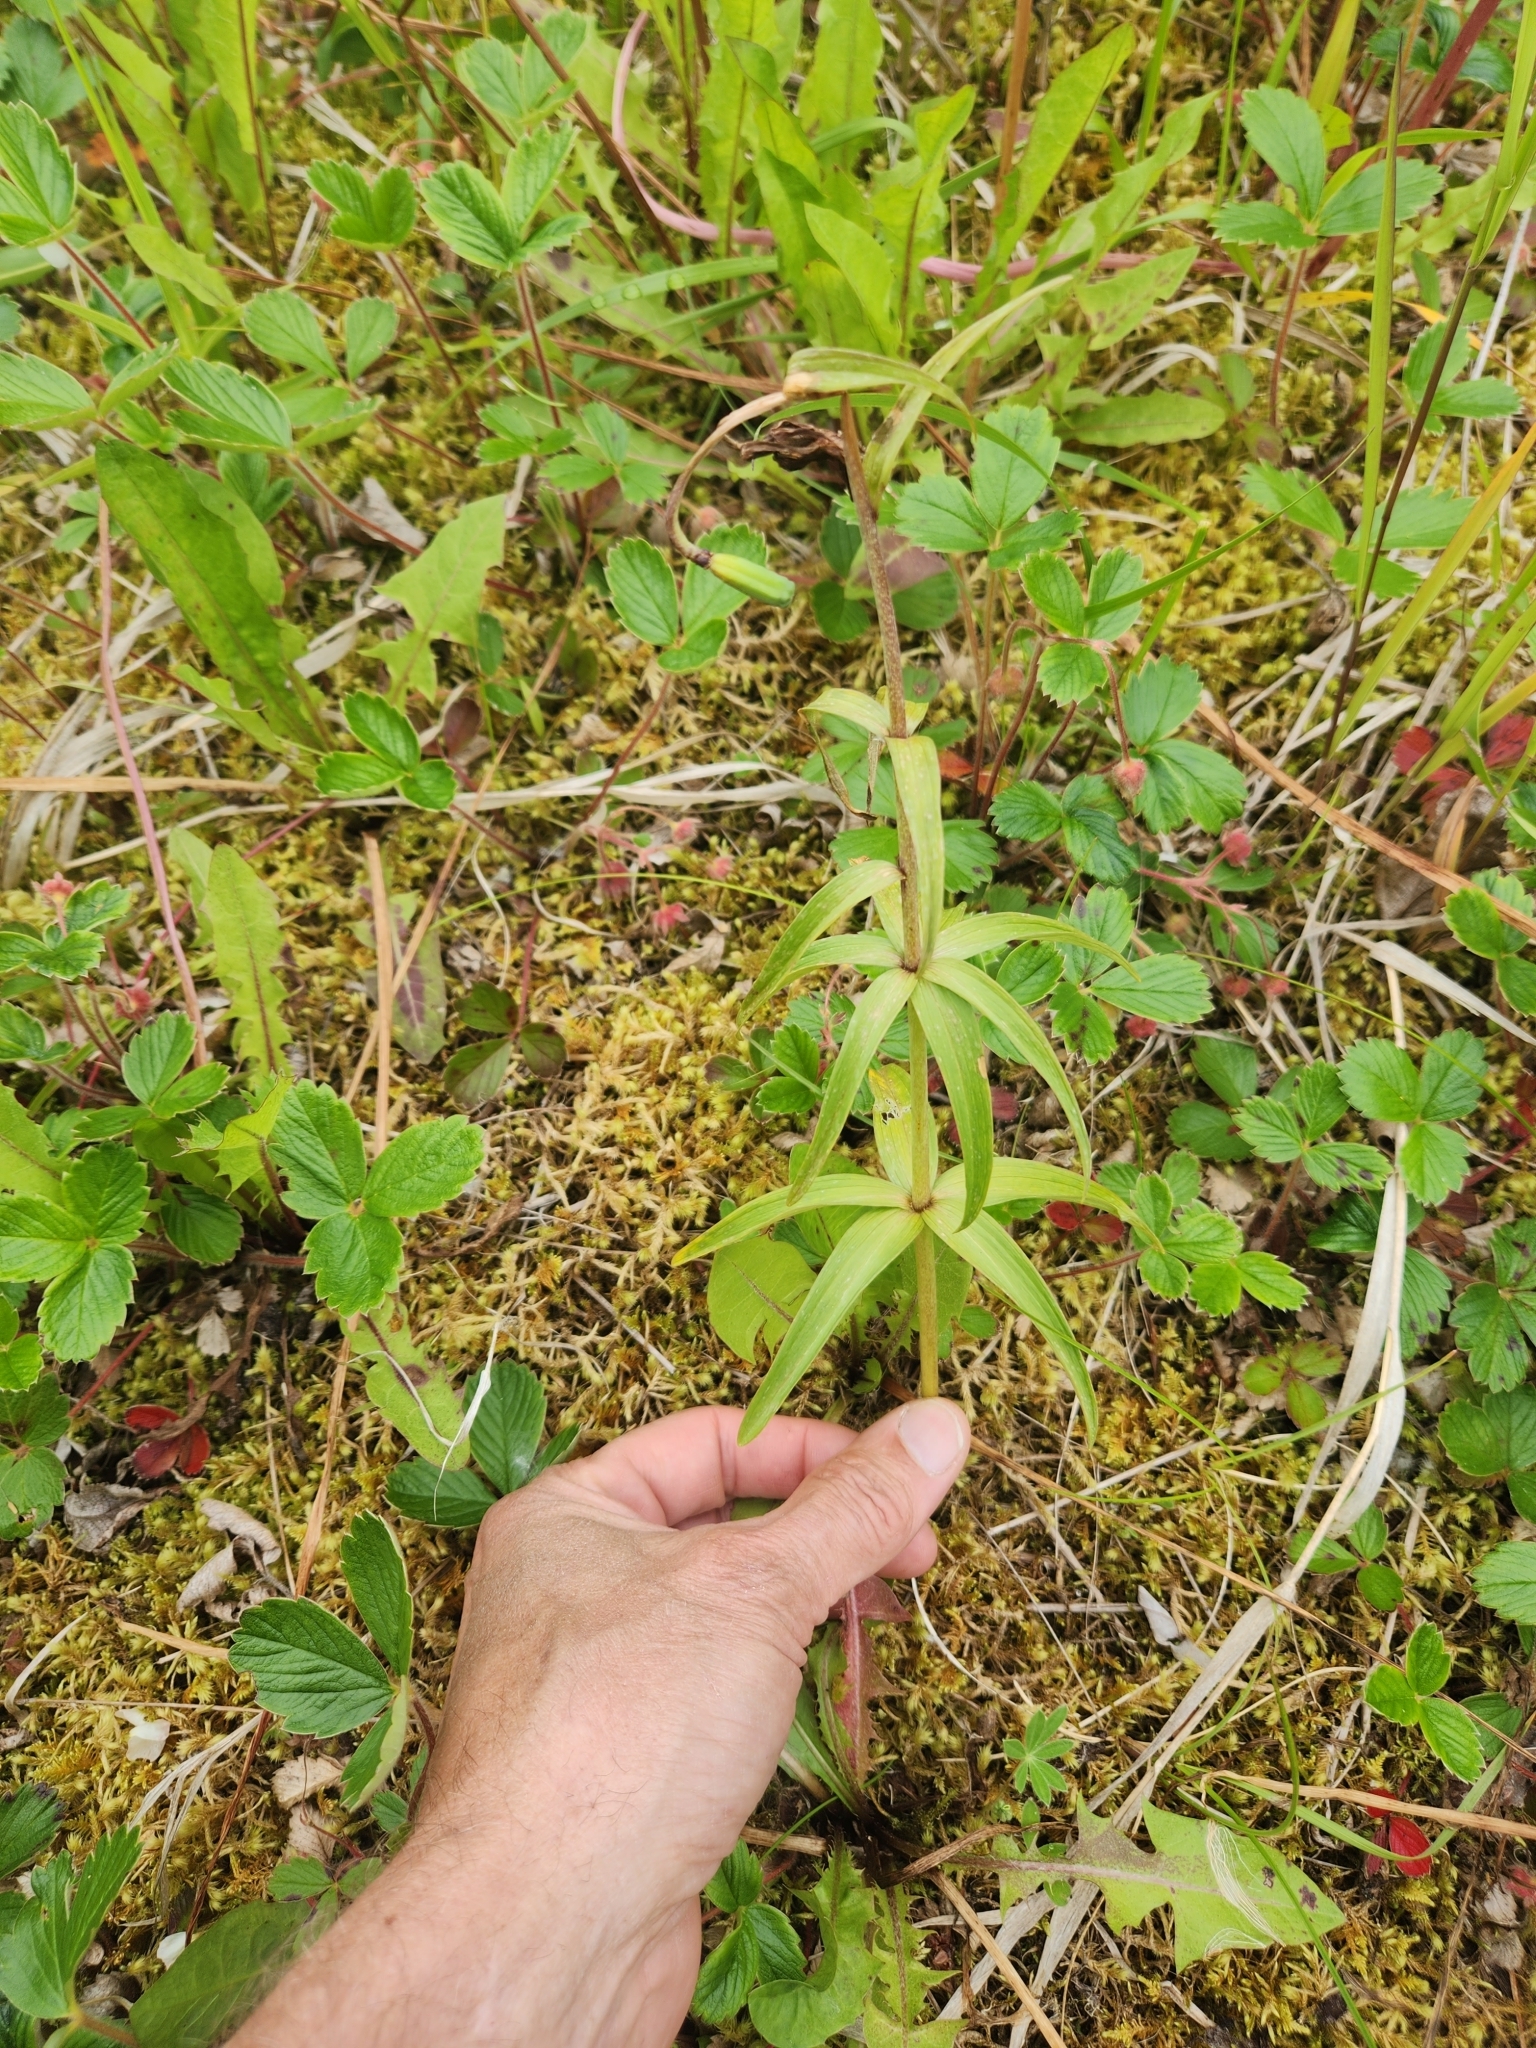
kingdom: Plantae
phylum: Tracheophyta
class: Liliopsida
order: Liliales
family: Liliaceae
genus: Fritillaria
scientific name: Fritillaria camschatcensis
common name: Kamchatka fritillary
